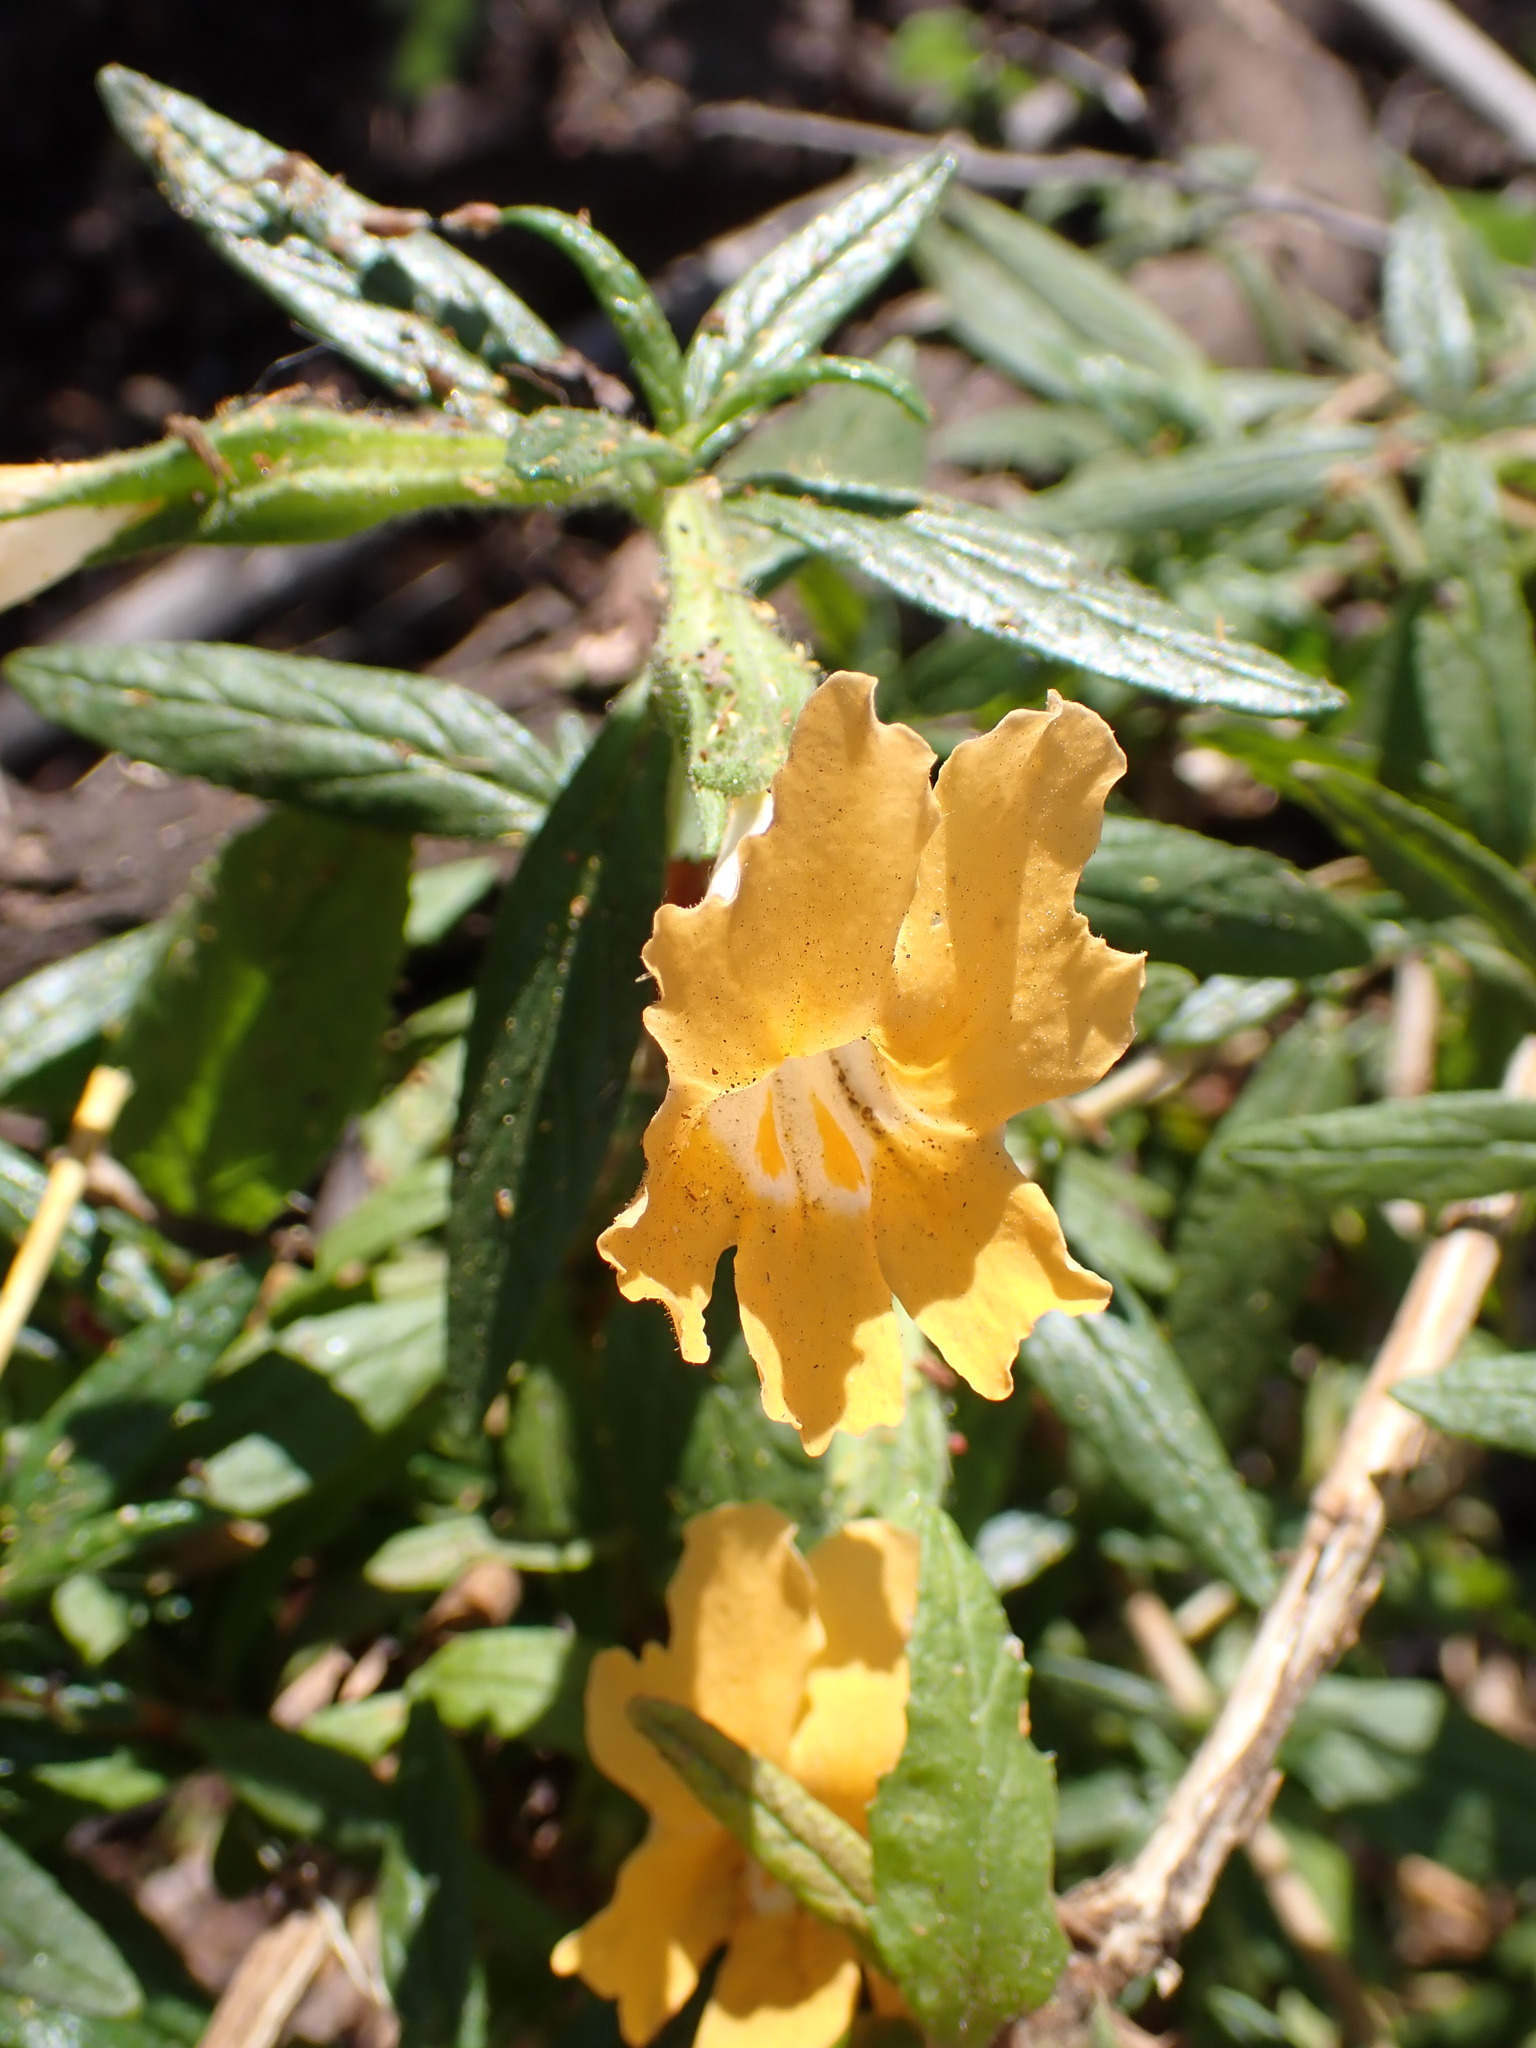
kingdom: Plantae
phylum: Tracheophyta
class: Magnoliopsida
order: Lamiales
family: Phrymaceae
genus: Diplacus
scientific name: Diplacus longiflorus
